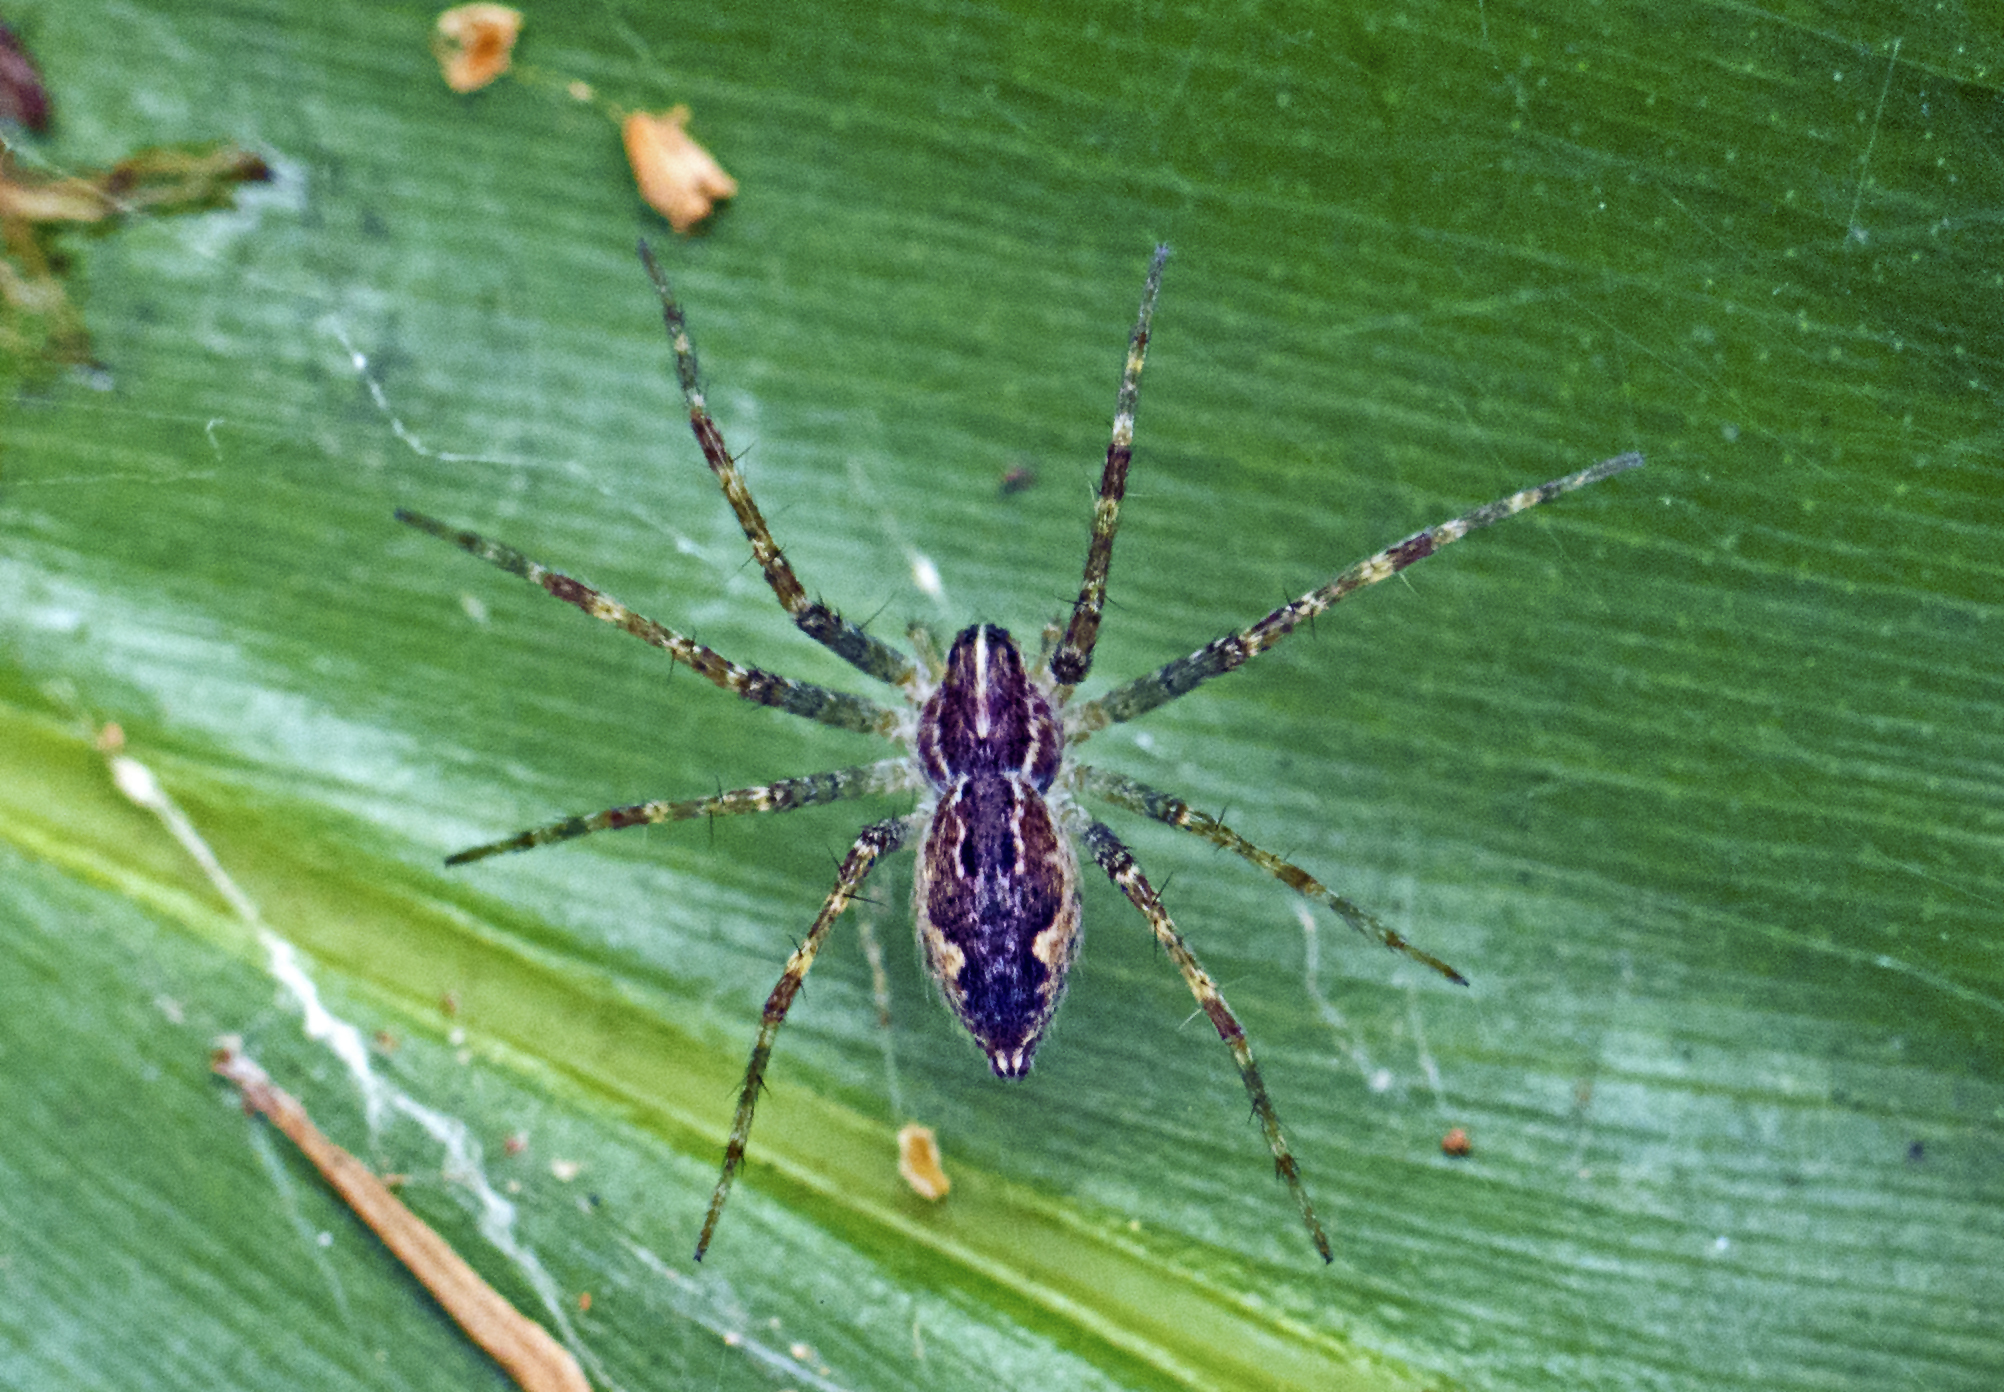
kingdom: Animalia
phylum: Arthropoda
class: Arachnida
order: Araneae
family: Pisauridae
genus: Dendrolycosa
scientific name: Dendrolycosa icadia
